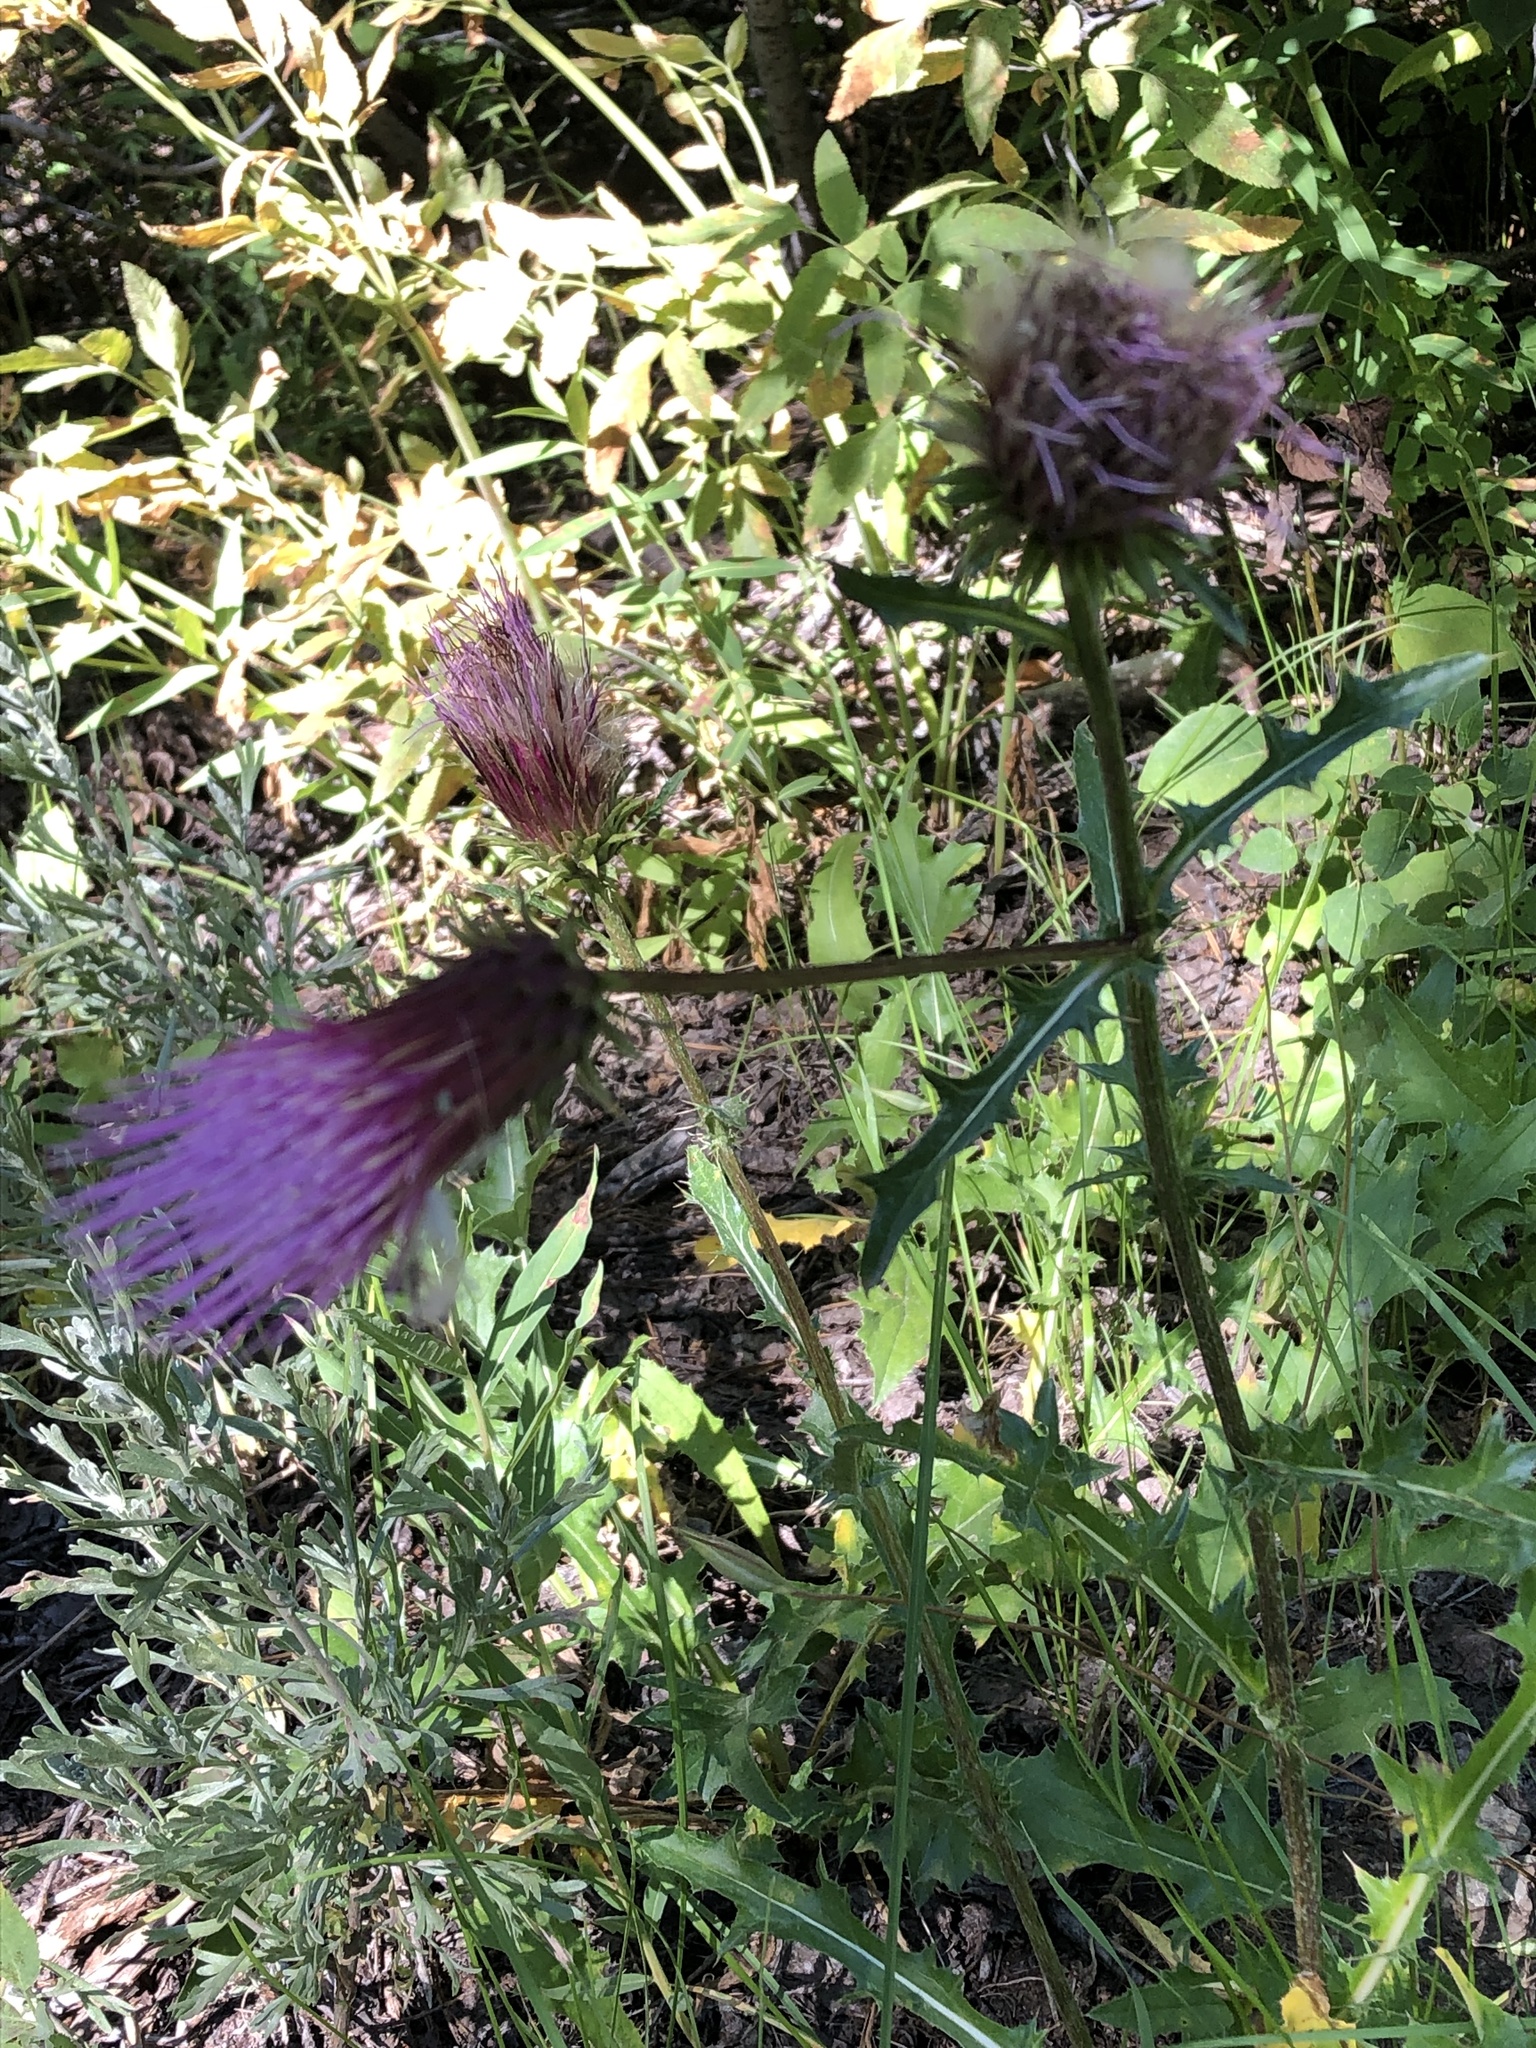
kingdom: Plantae
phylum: Tracheophyta
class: Magnoliopsida
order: Asterales
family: Asteraceae
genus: Cirsium
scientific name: Cirsium andersonii
